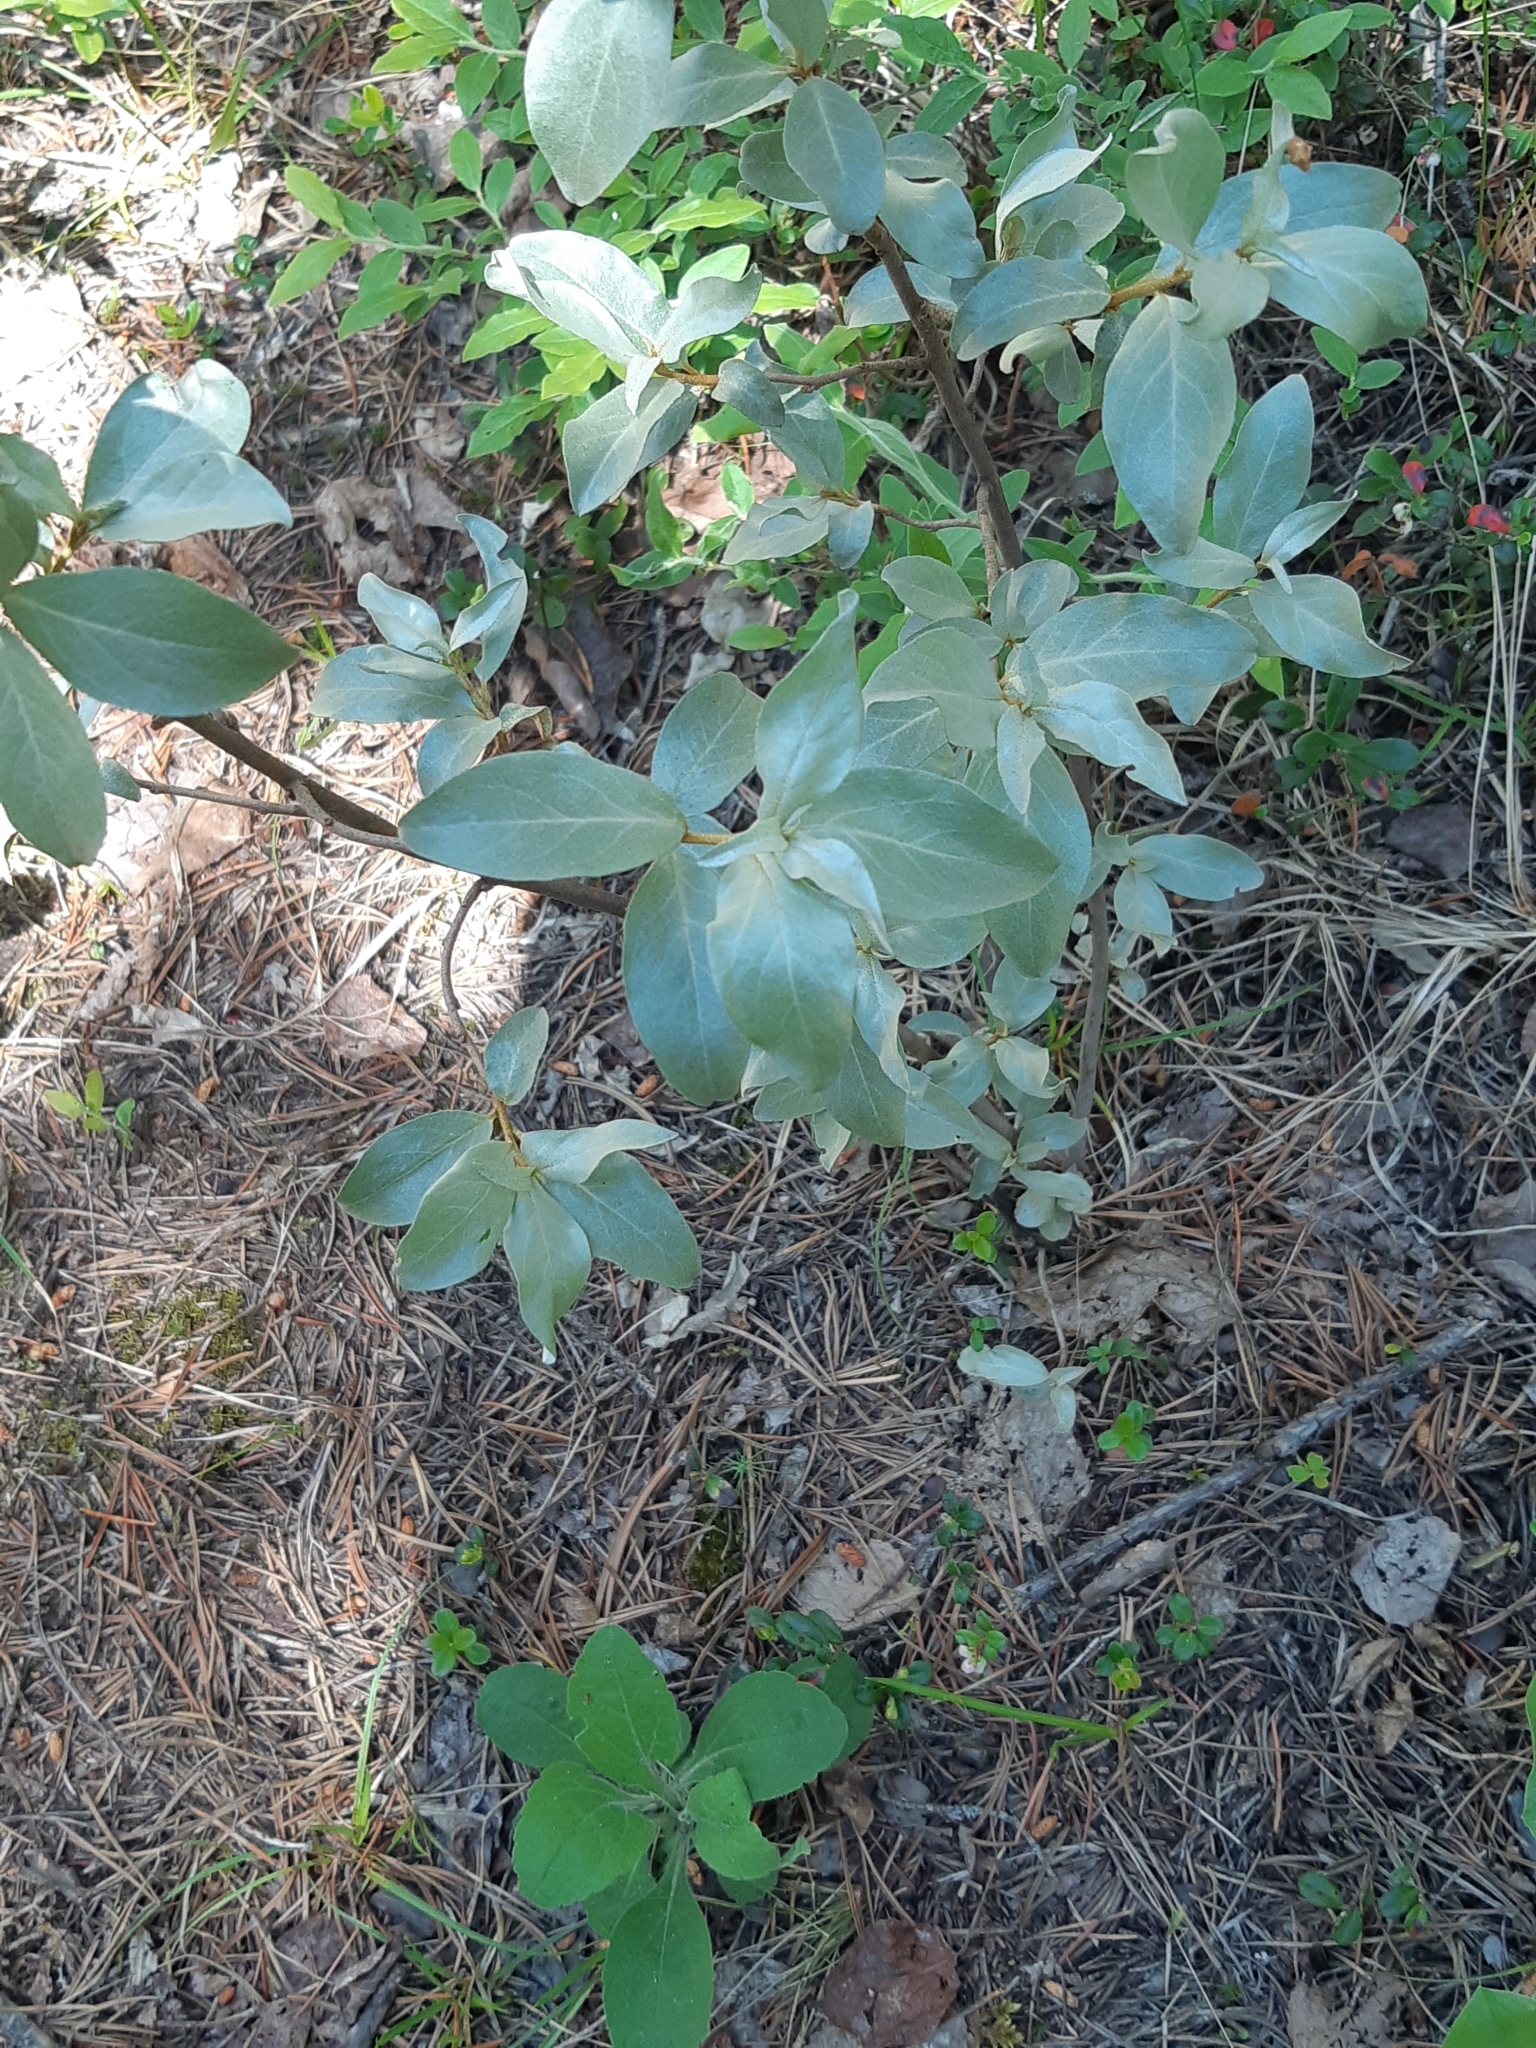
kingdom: Plantae
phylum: Tracheophyta
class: Magnoliopsida
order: Rosales
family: Elaeagnaceae
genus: Elaeagnus
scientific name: Elaeagnus commutata
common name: Silverberry
